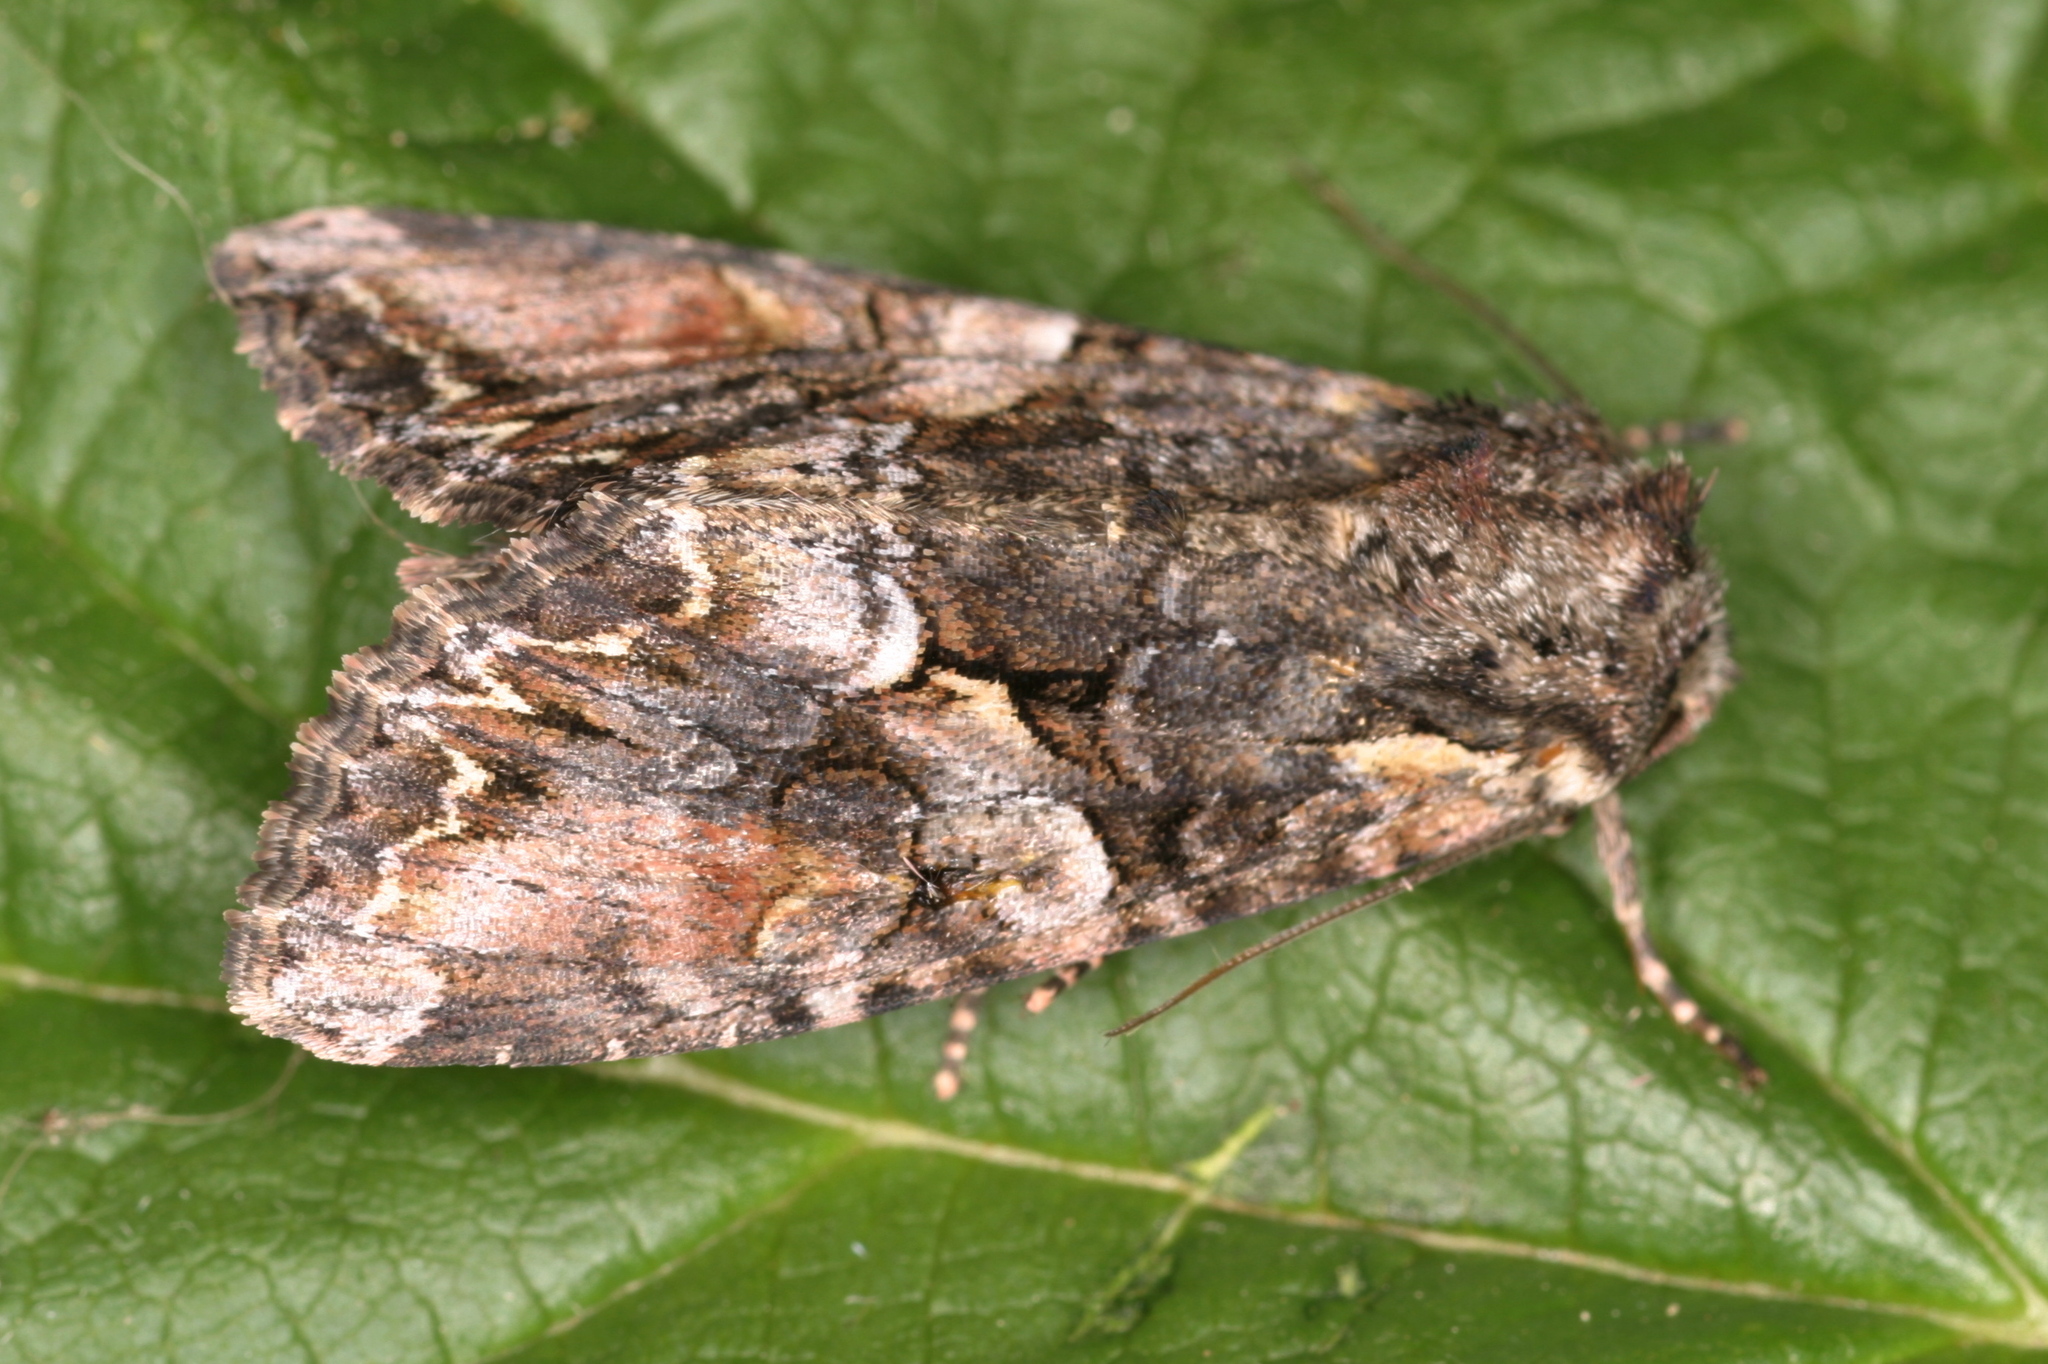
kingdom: Animalia
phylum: Arthropoda
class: Insecta
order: Lepidoptera
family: Noctuidae
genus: Lacanobia
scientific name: Lacanobia contigua
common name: Beautiful brocade
